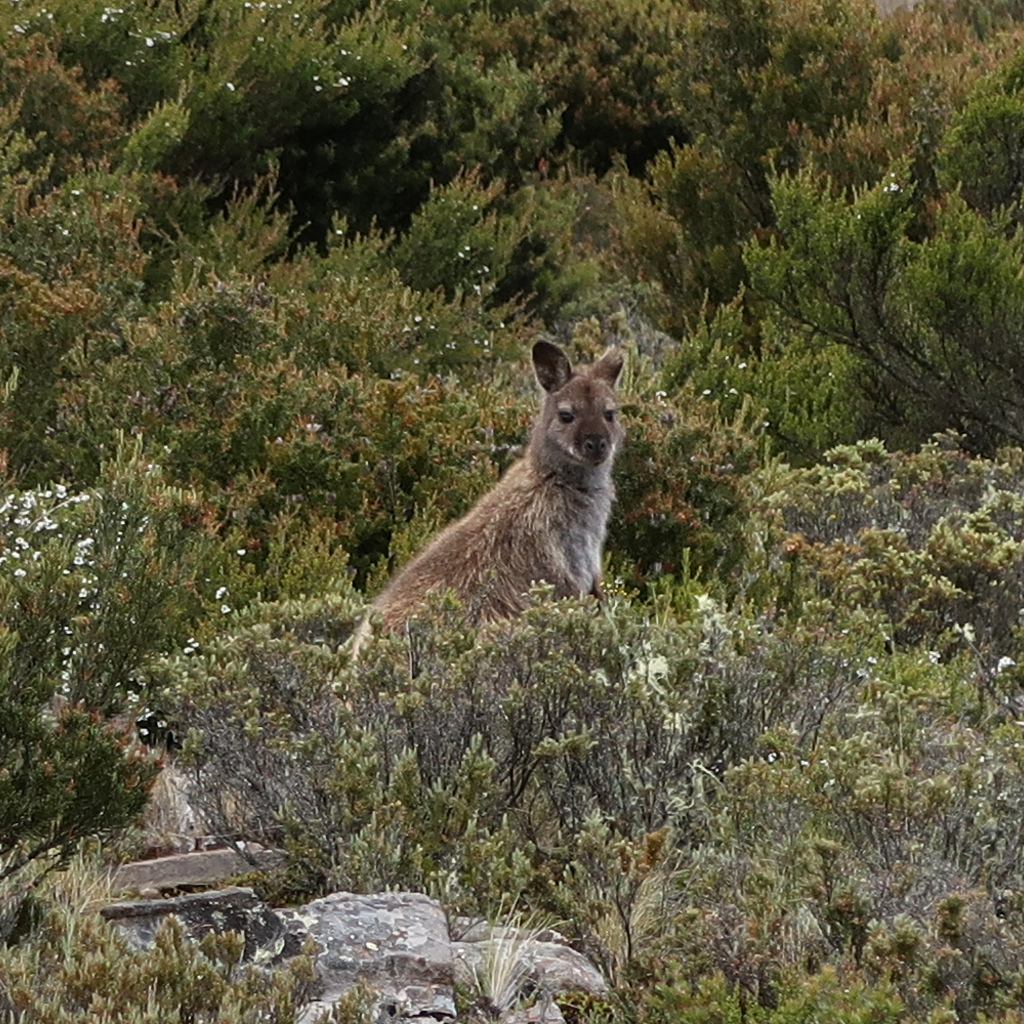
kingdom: Animalia
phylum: Chordata
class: Mammalia
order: Diprotodontia
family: Macropodidae
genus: Notamacropus
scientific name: Notamacropus rufogriseus
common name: Red-necked wallaby
